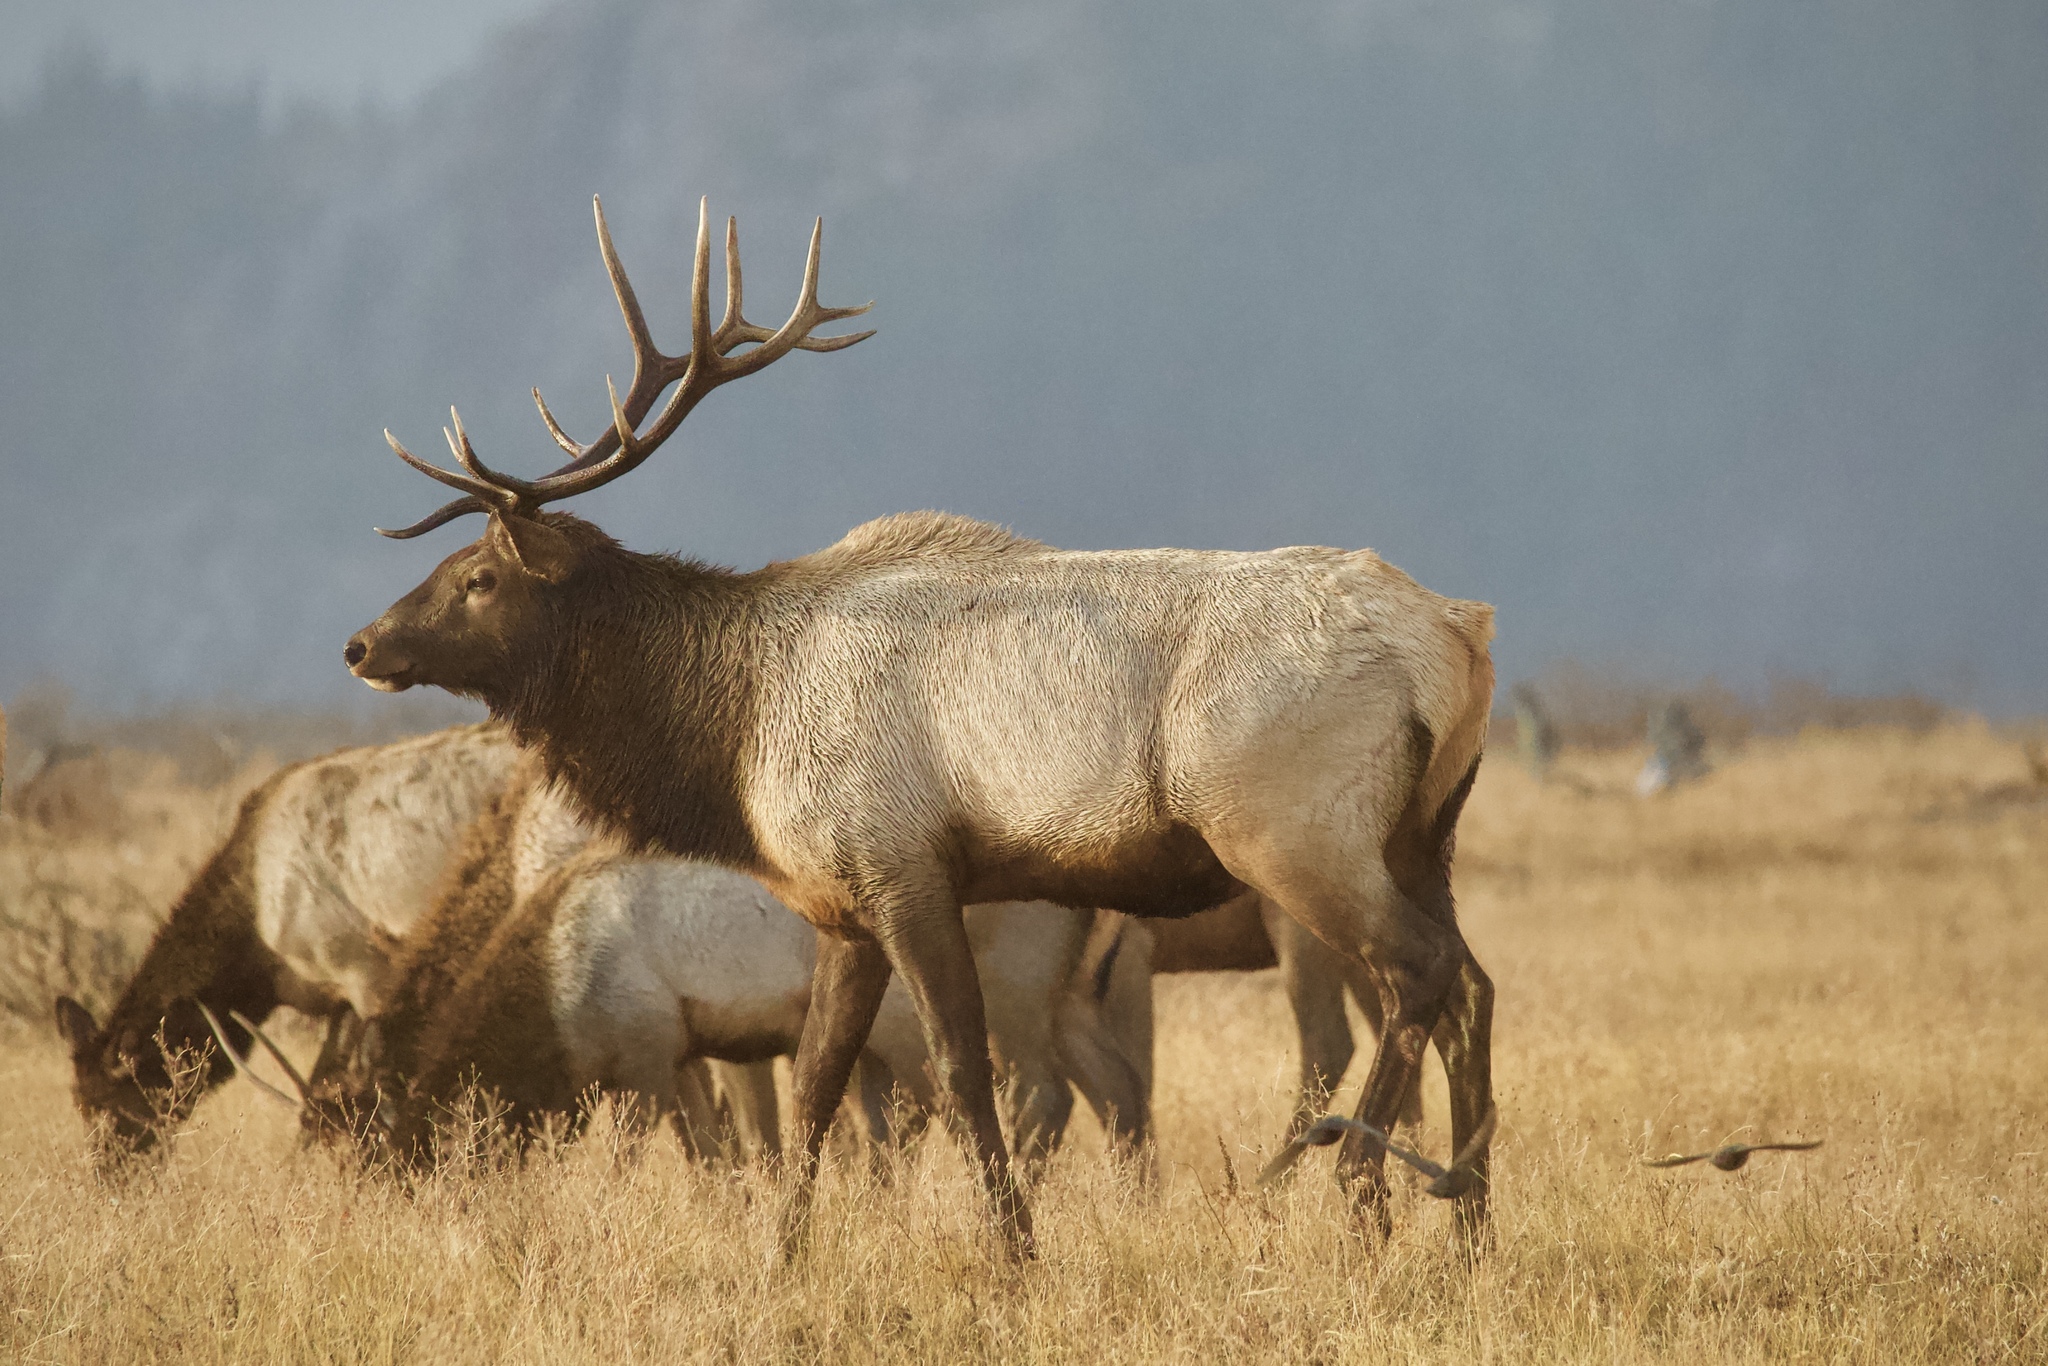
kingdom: Animalia
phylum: Chordata
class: Mammalia
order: Artiodactyla
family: Cervidae
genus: Cervus
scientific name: Cervus elaphus
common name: Red deer
